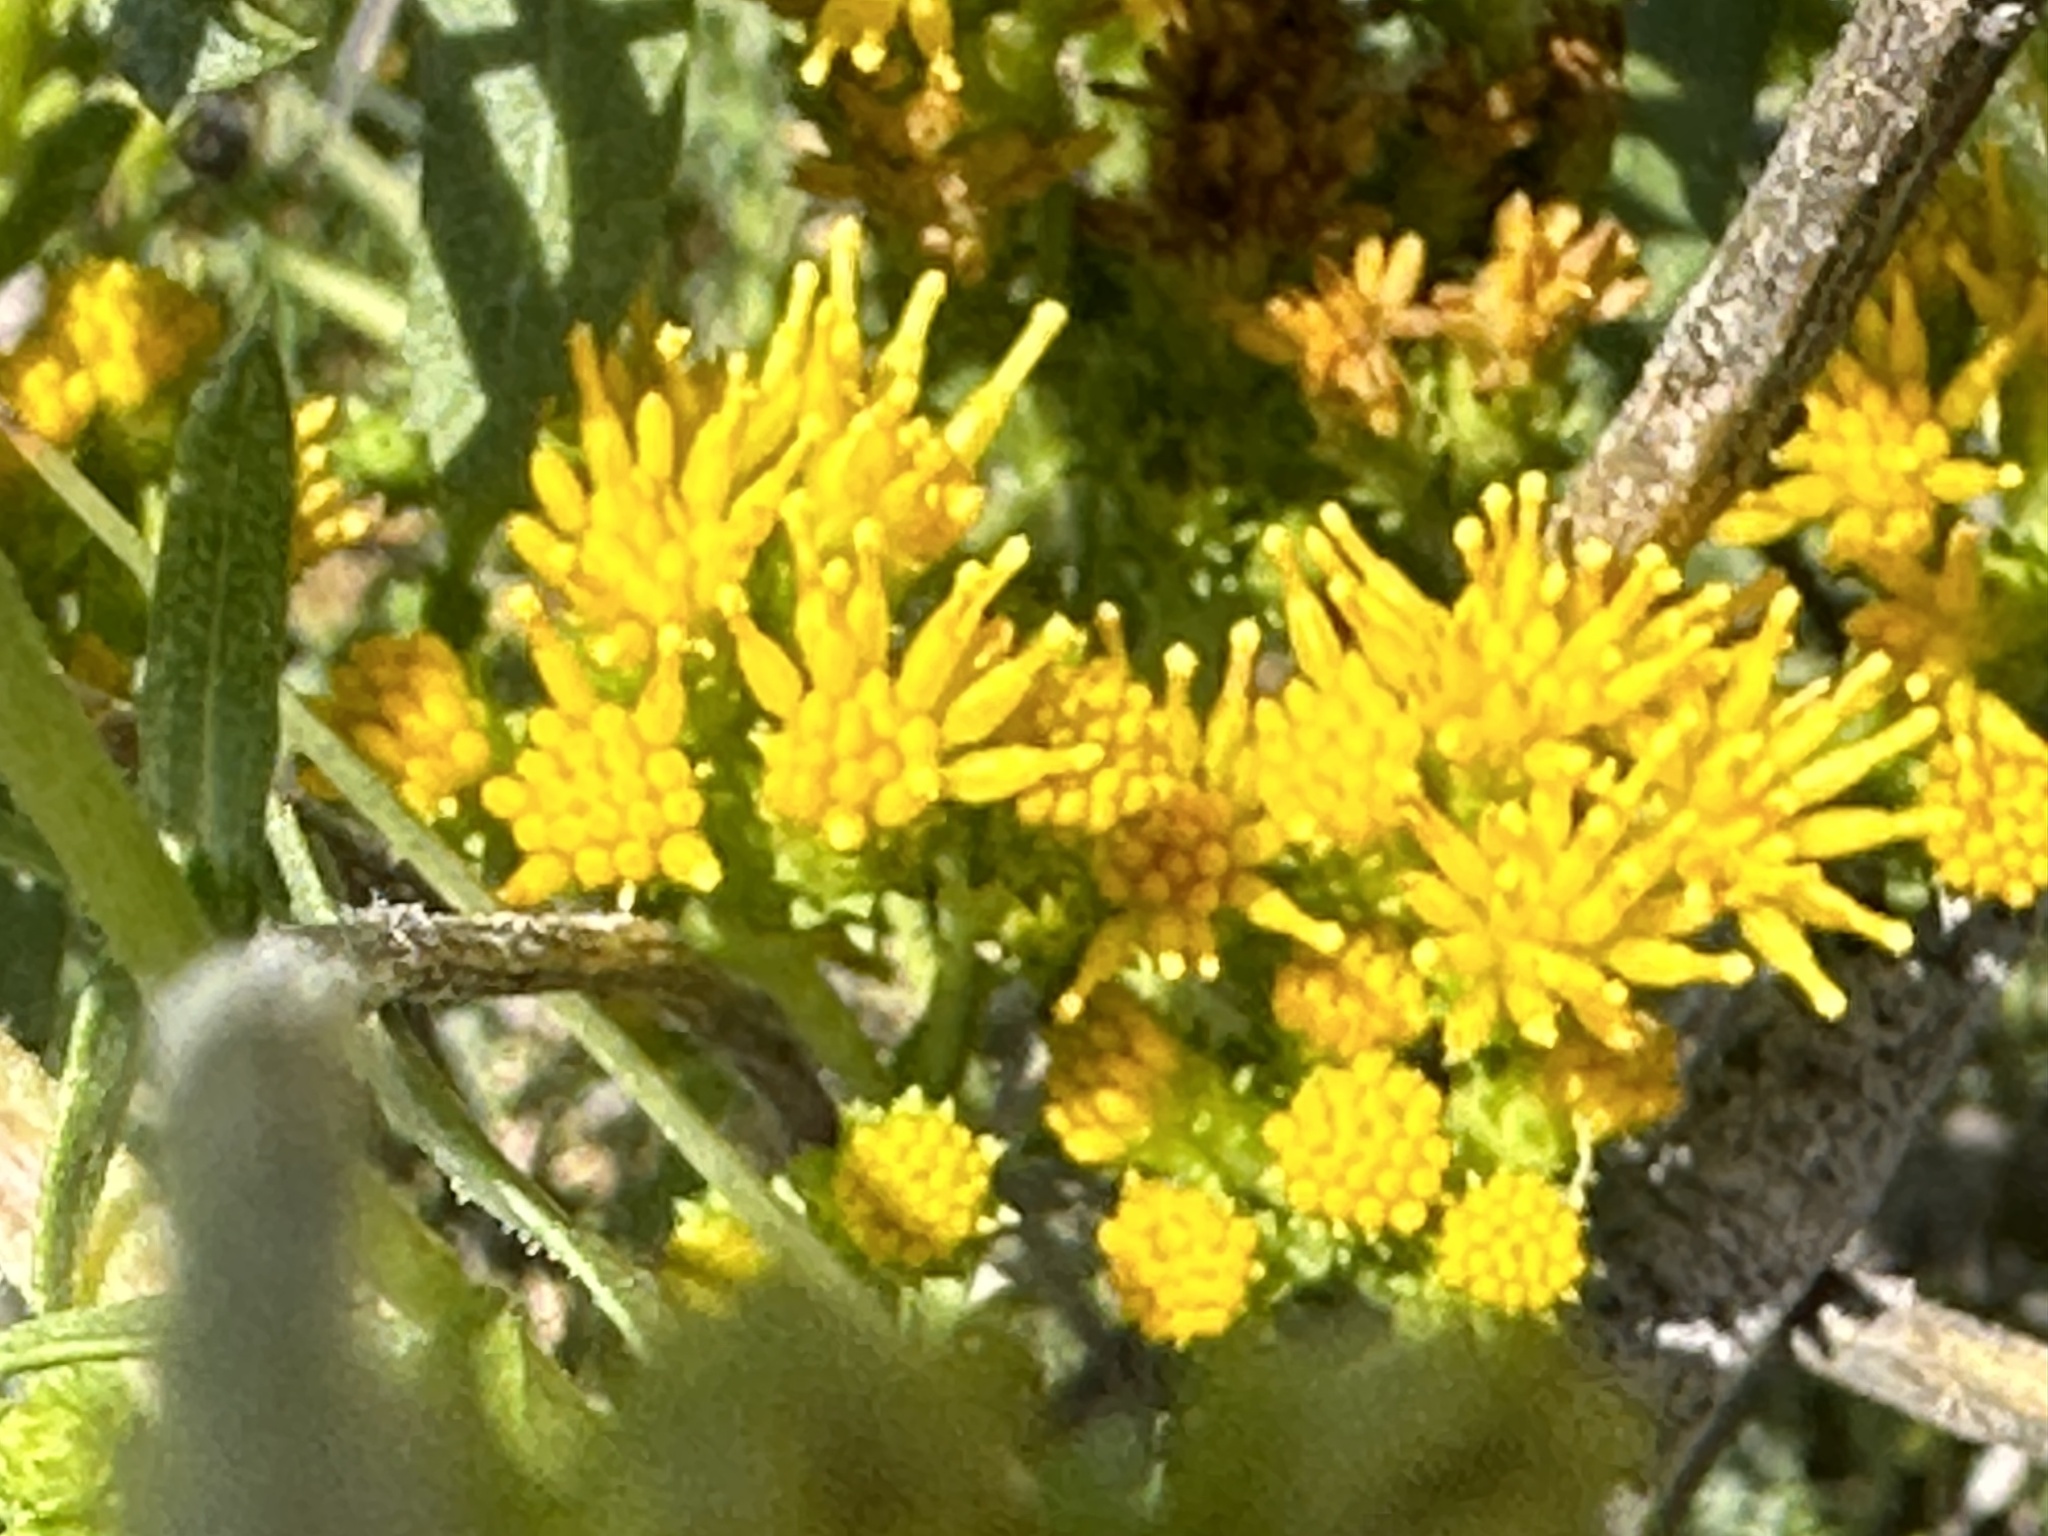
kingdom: Plantae
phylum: Tracheophyta
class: Magnoliopsida
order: Asterales
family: Asteraceae
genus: Isocoma
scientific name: Isocoma menziesii
